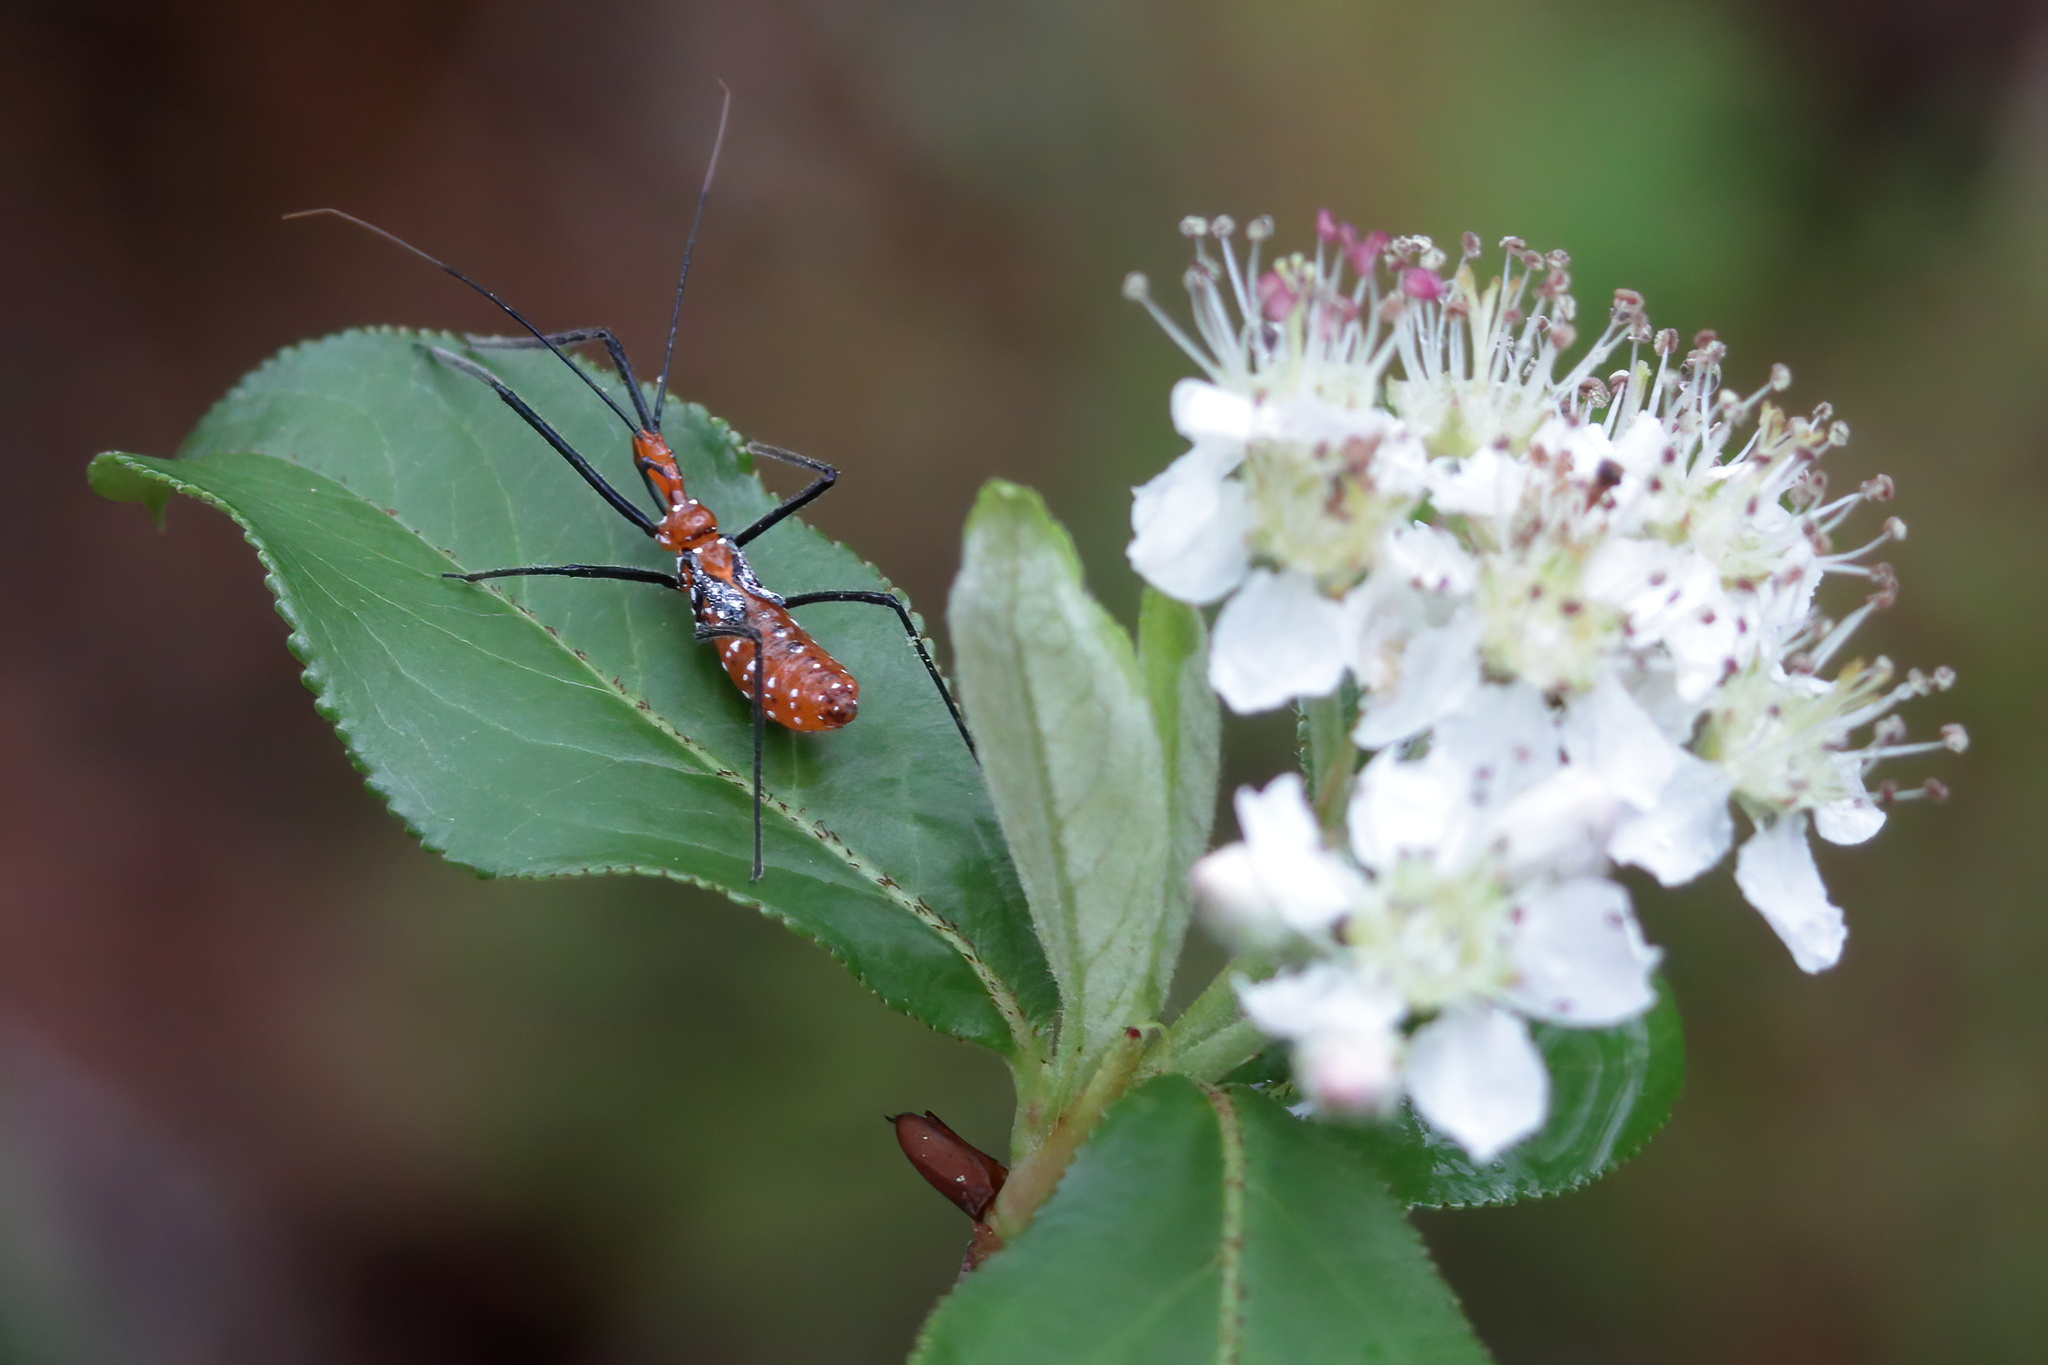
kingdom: Animalia
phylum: Arthropoda
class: Insecta
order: Hemiptera
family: Reduviidae
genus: Zelus
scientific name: Zelus longipes
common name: Milkweed assassin bug
